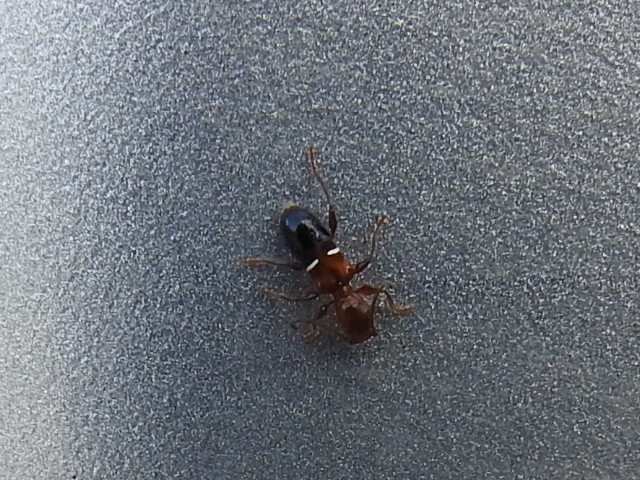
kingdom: Animalia
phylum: Arthropoda
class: Insecta
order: Coleoptera
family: Cerambycidae
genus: Euderces
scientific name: Euderces reichei
